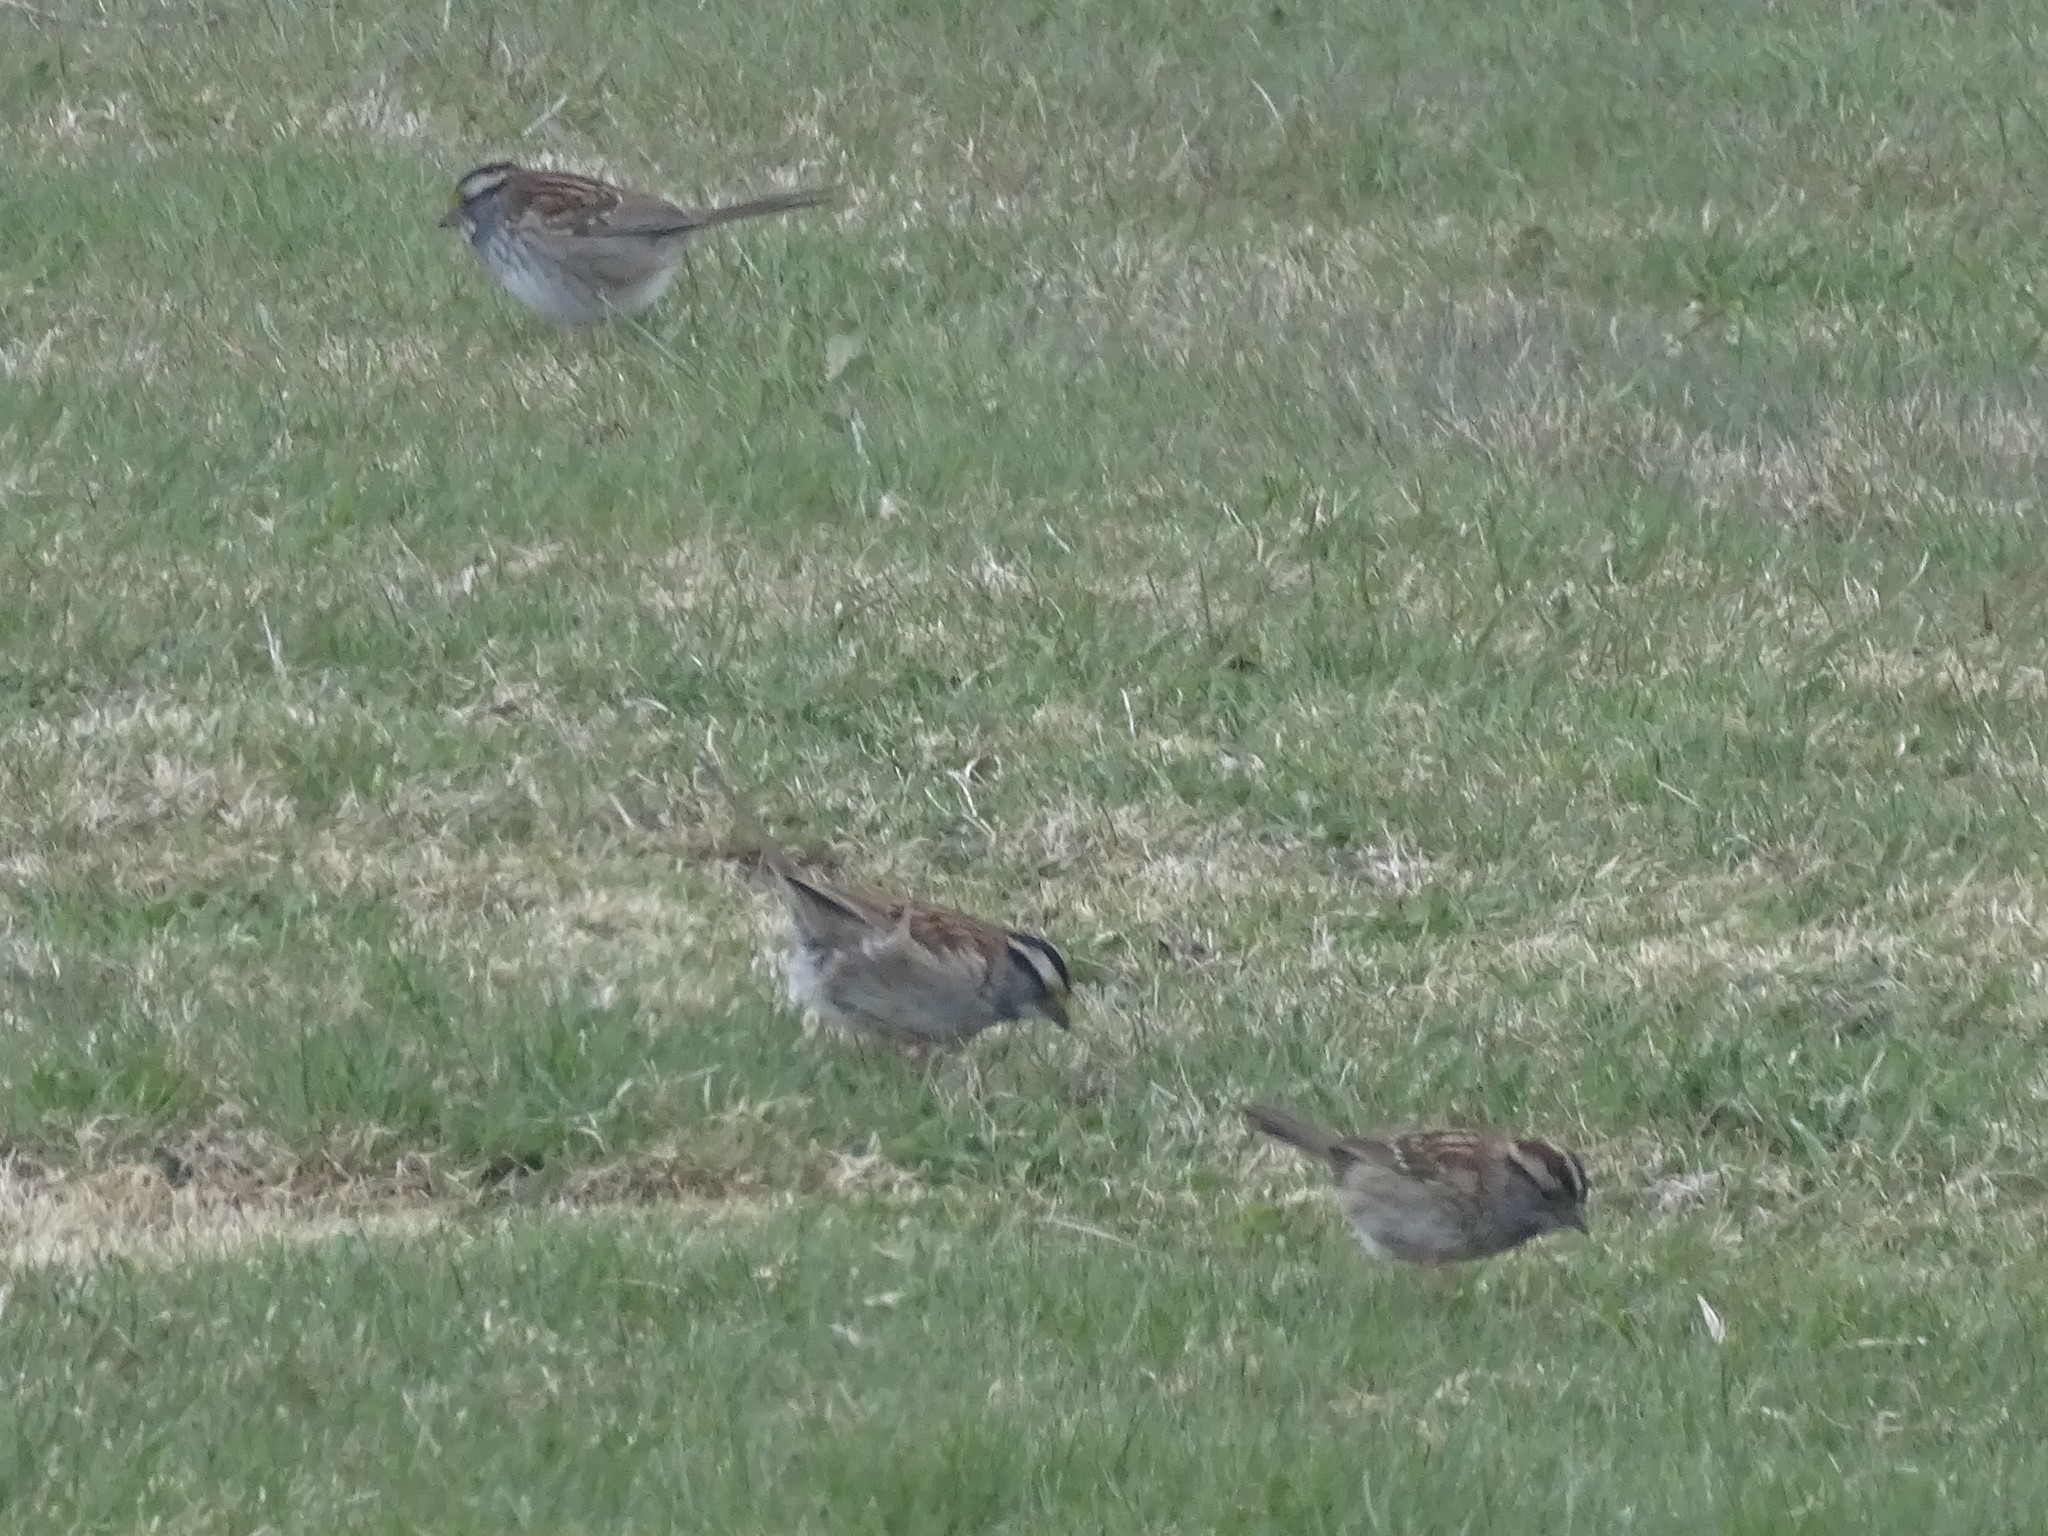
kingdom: Animalia
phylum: Chordata
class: Aves
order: Passeriformes
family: Passerellidae
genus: Zonotrichia
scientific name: Zonotrichia albicollis
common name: White-throated sparrow
